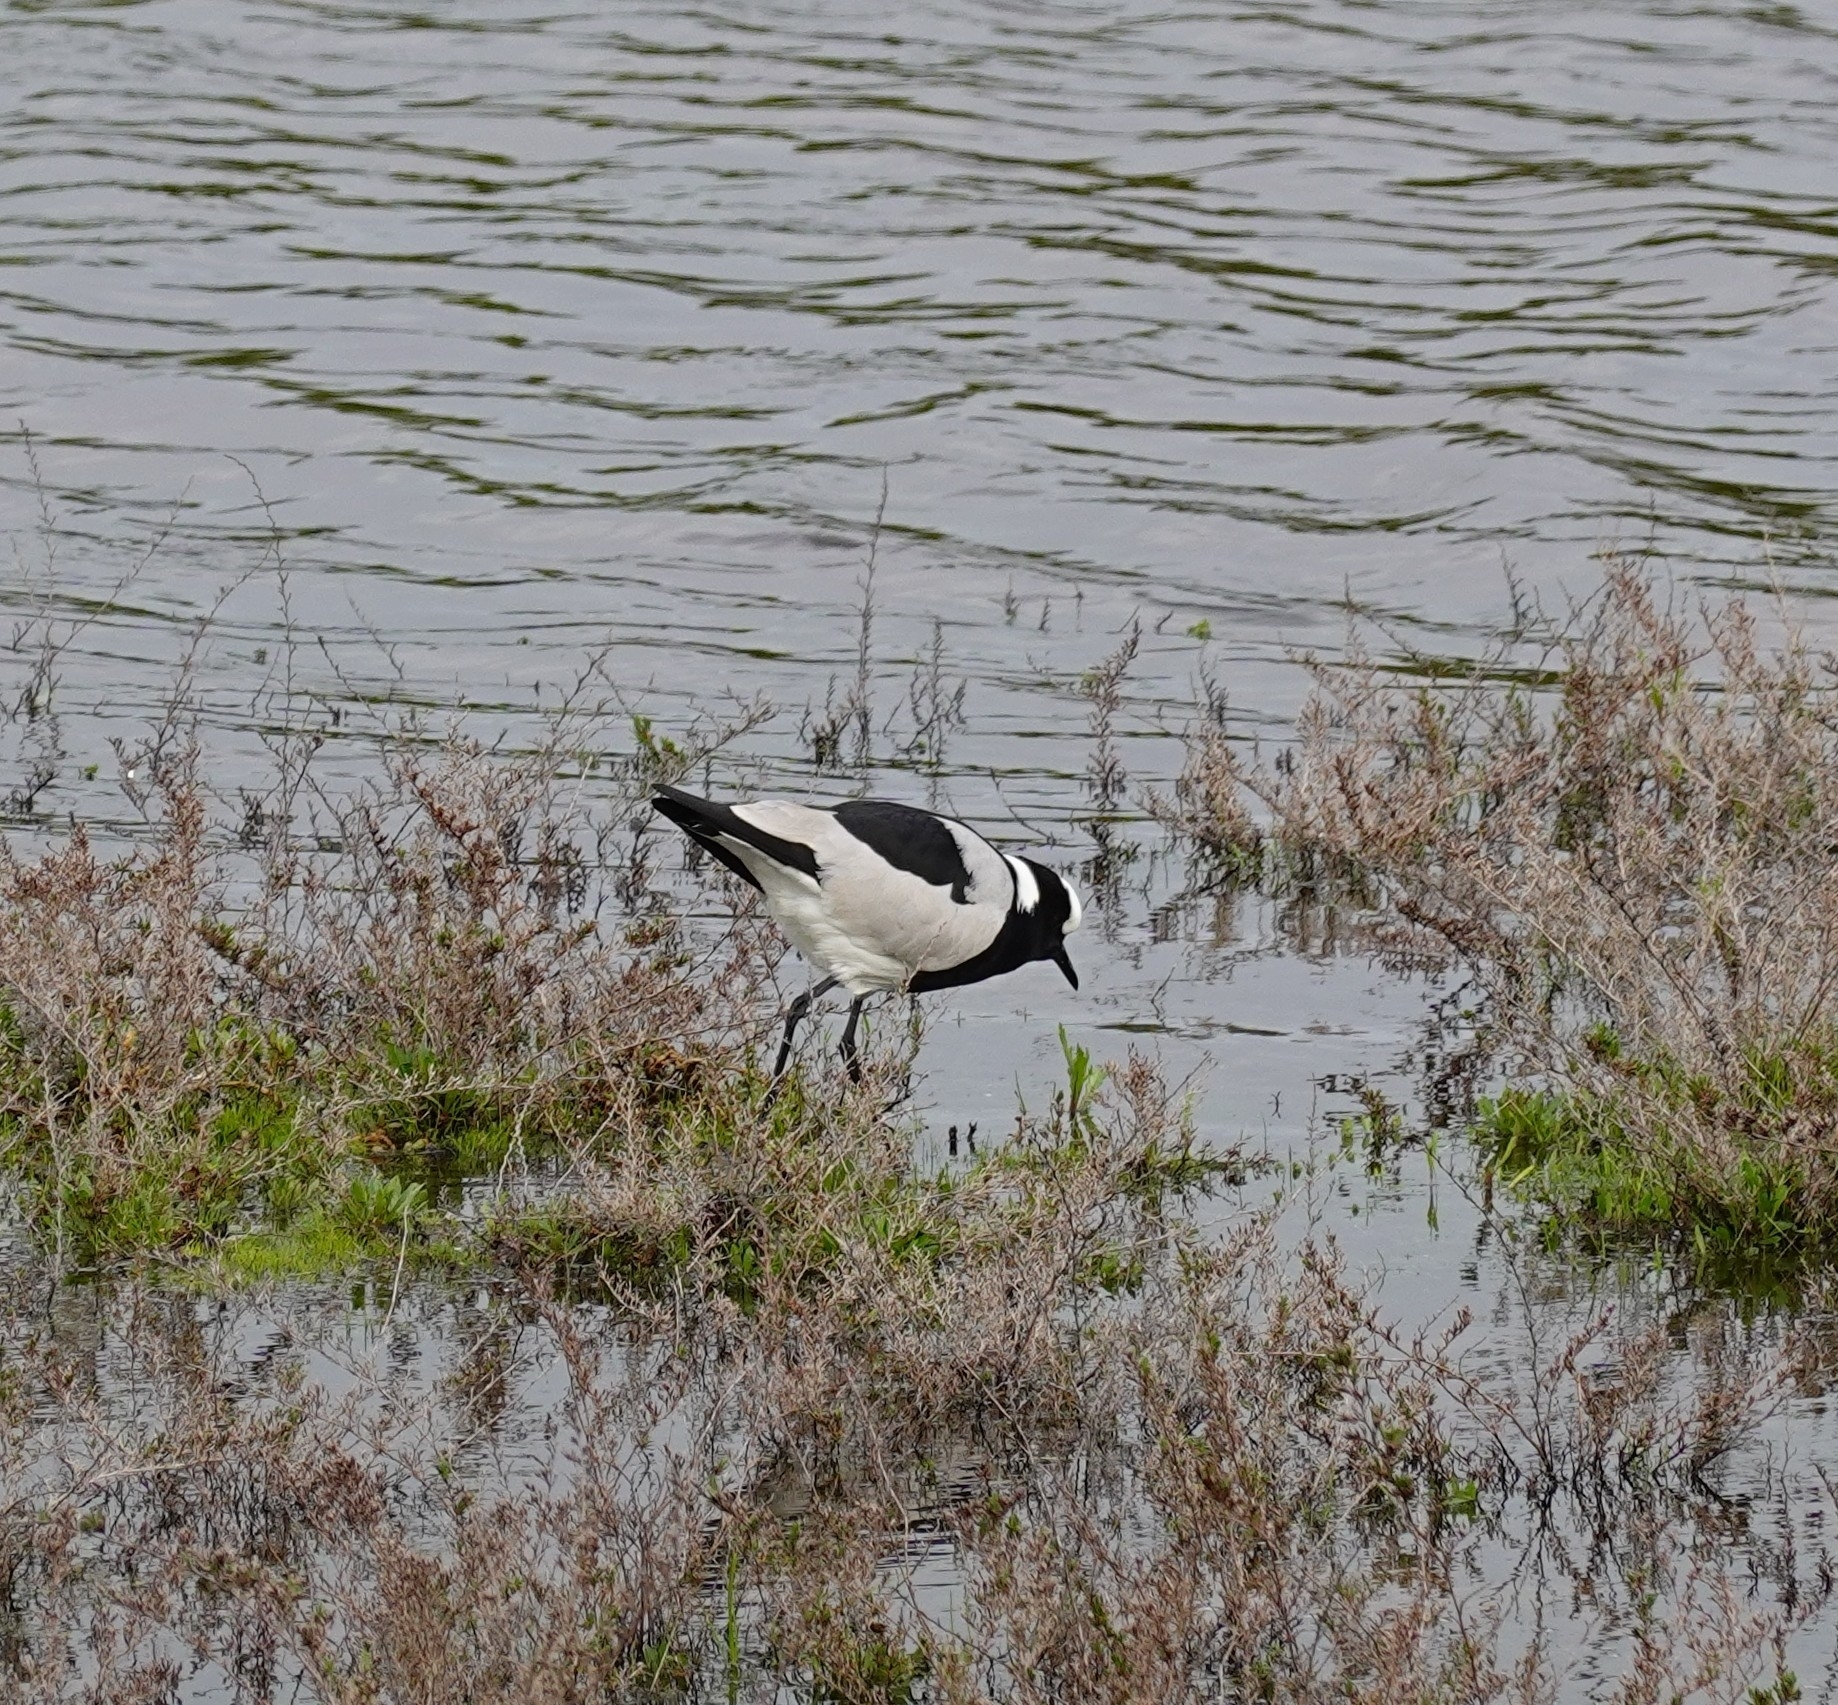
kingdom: Animalia
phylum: Chordata
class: Aves
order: Charadriiformes
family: Charadriidae
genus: Vanellus
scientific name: Vanellus armatus
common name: Blacksmith lapwing
